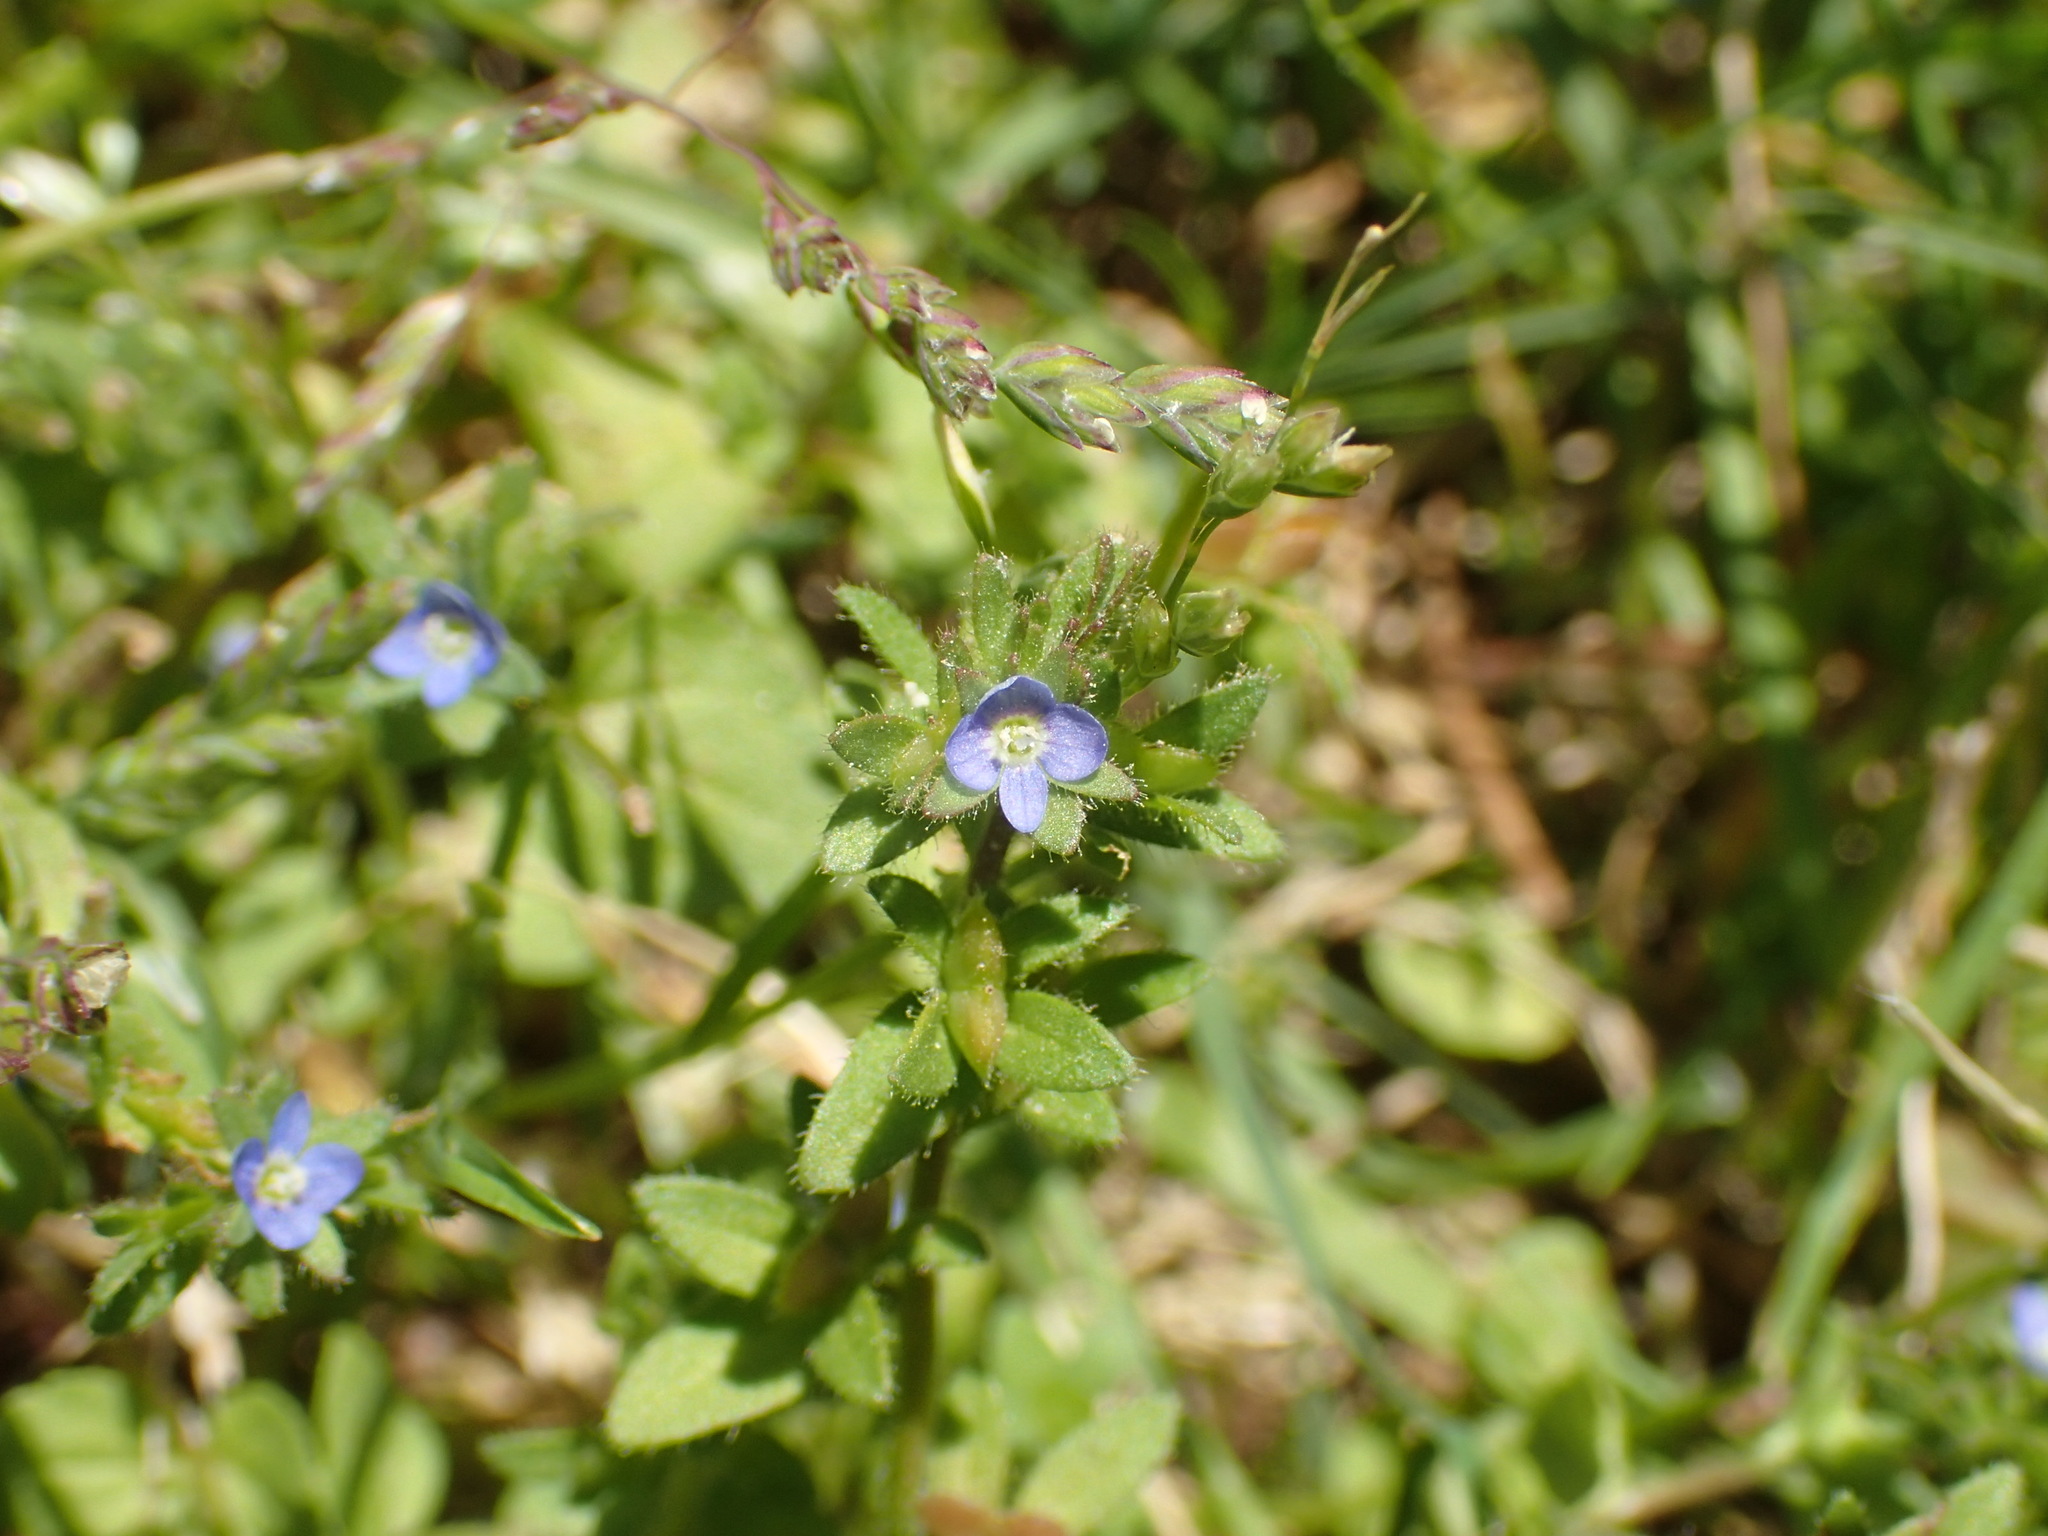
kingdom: Plantae
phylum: Tracheophyta
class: Magnoliopsida
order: Lamiales
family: Plantaginaceae
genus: Veronica
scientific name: Veronica arvensis
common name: Corn speedwell
